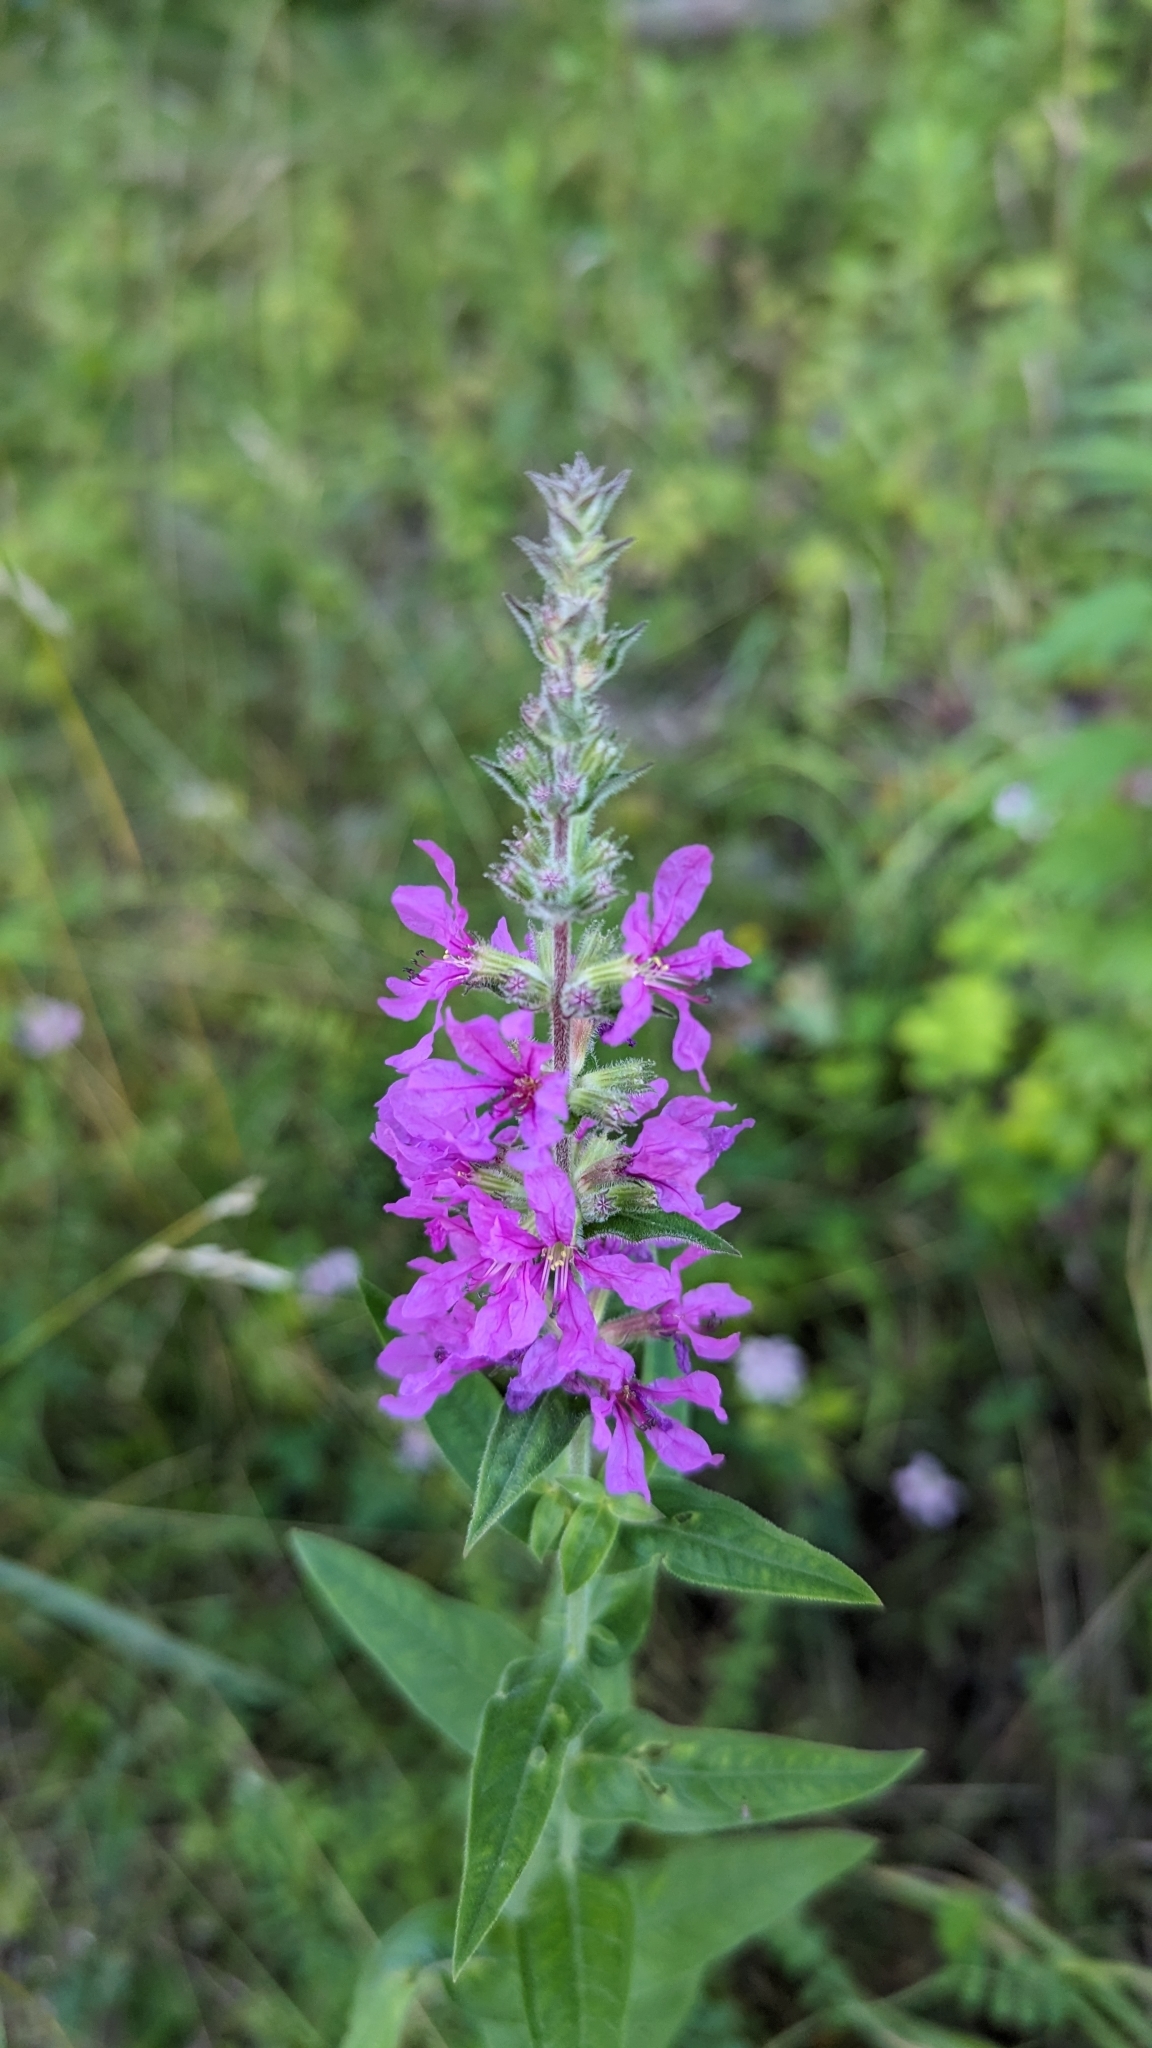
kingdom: Plantae
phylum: Tracheophyta
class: Magnoliopsida
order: Myrtales
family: Lythraceae
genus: Lythrum
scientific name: Lythrum salicaria
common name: Purple loosestrife
